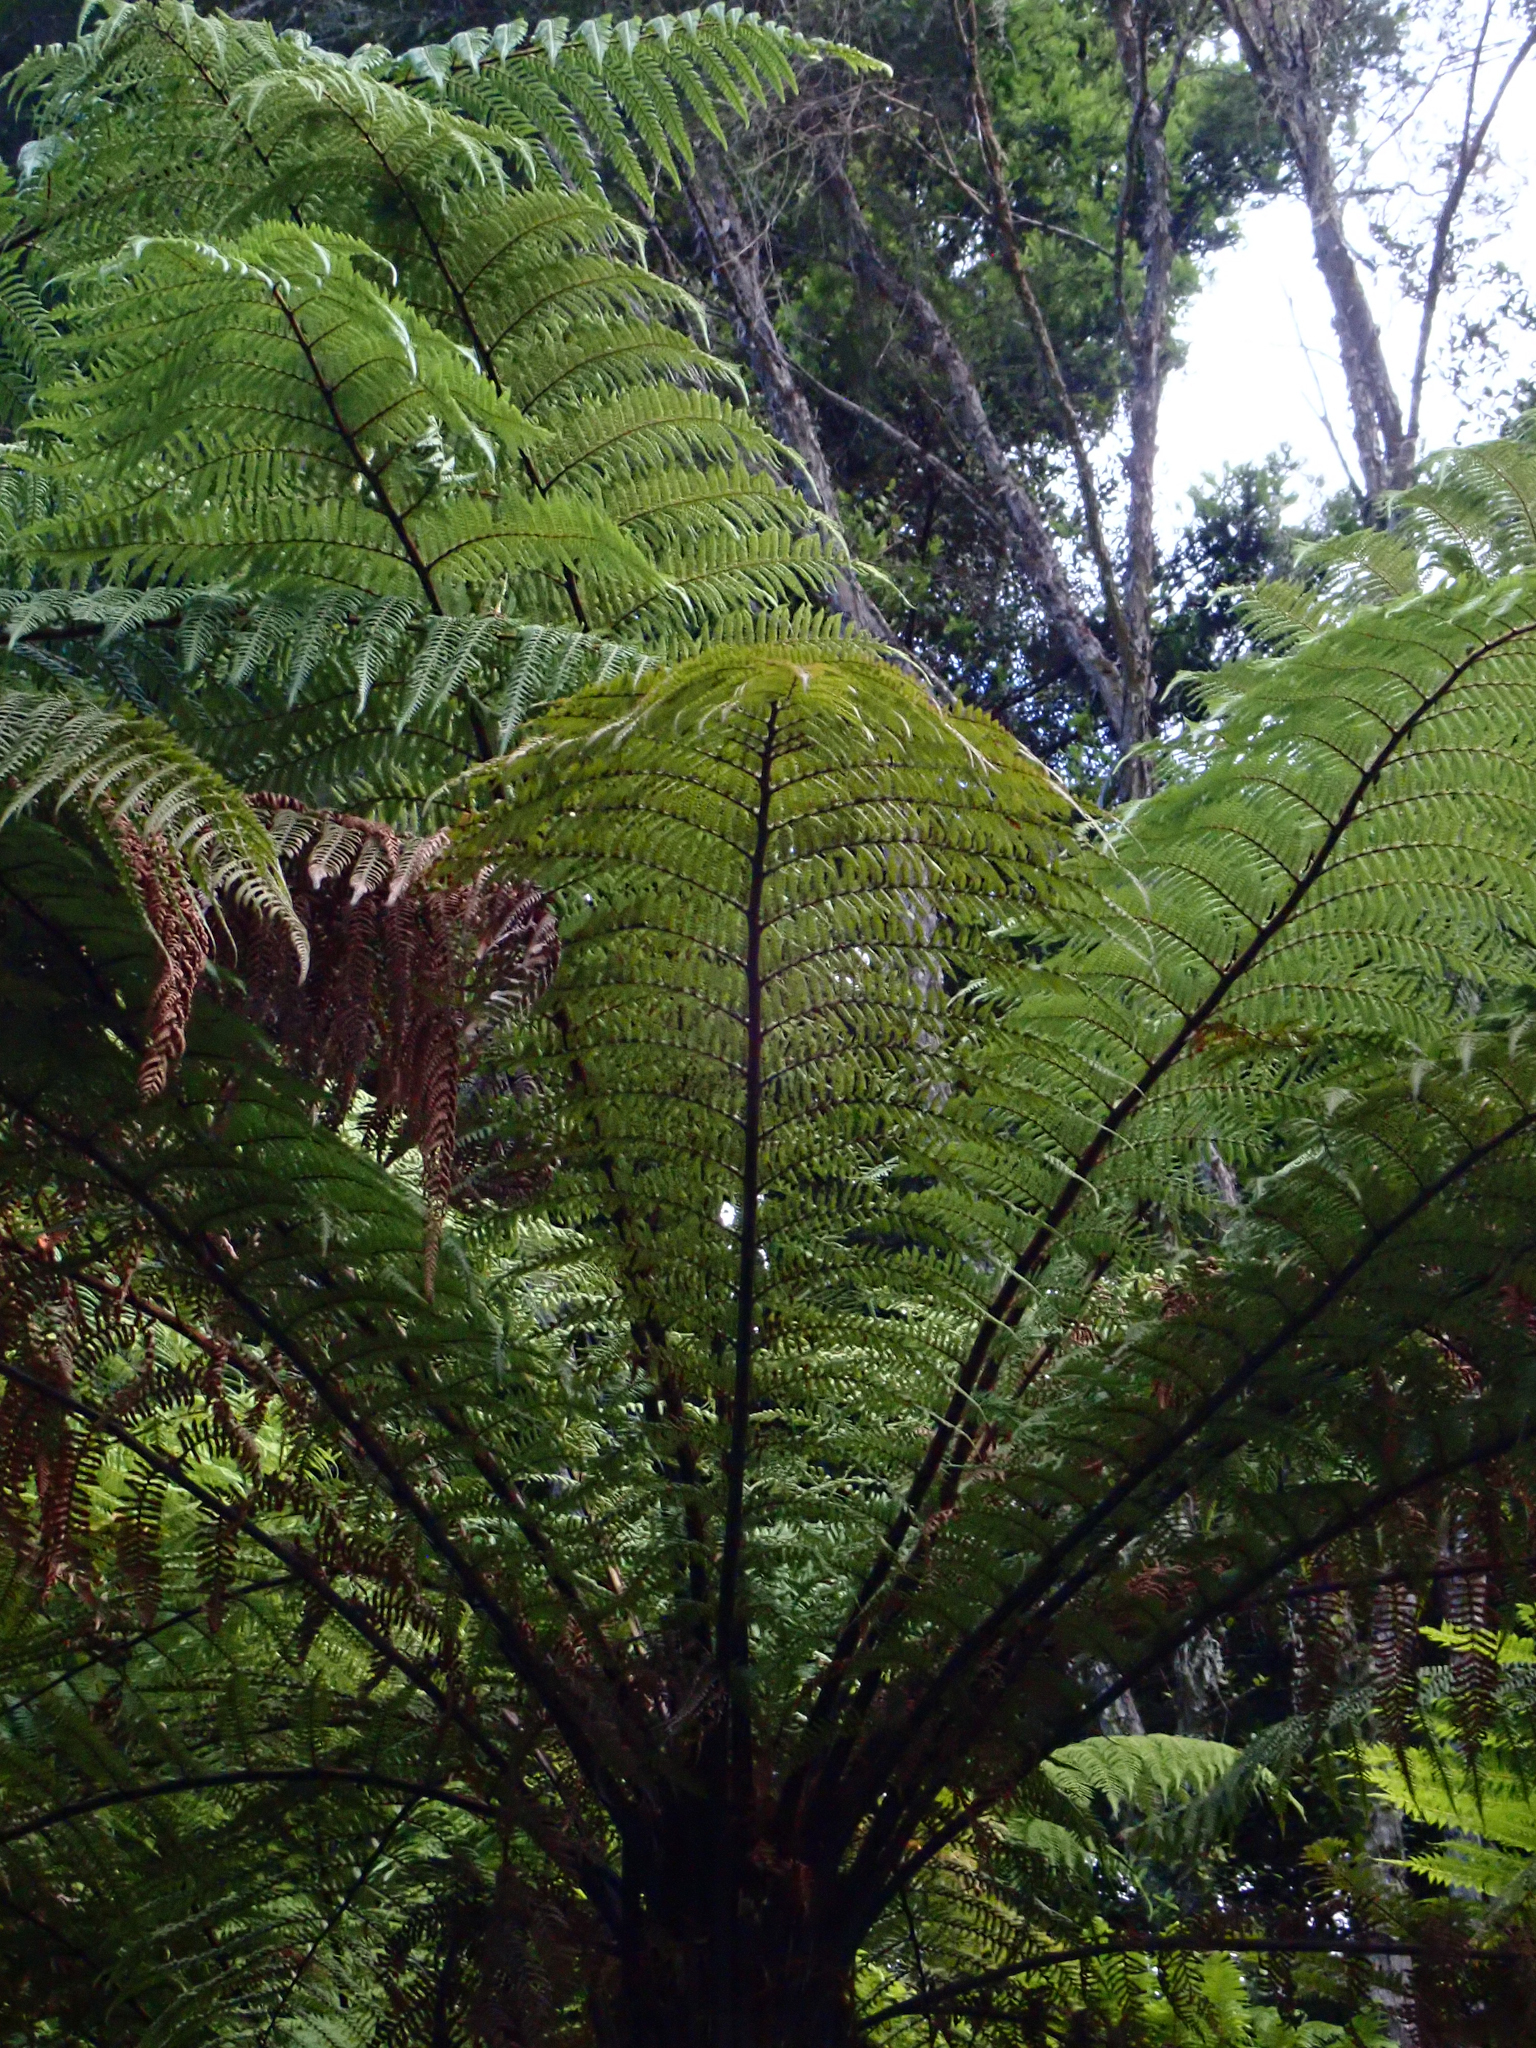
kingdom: Plantae
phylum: Tracheophyta
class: Polypodiopsida
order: Cyatheales
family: Dicksoniaceae
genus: Dicksonia
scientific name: Dicksonia squarrosa
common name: Hard treefern
